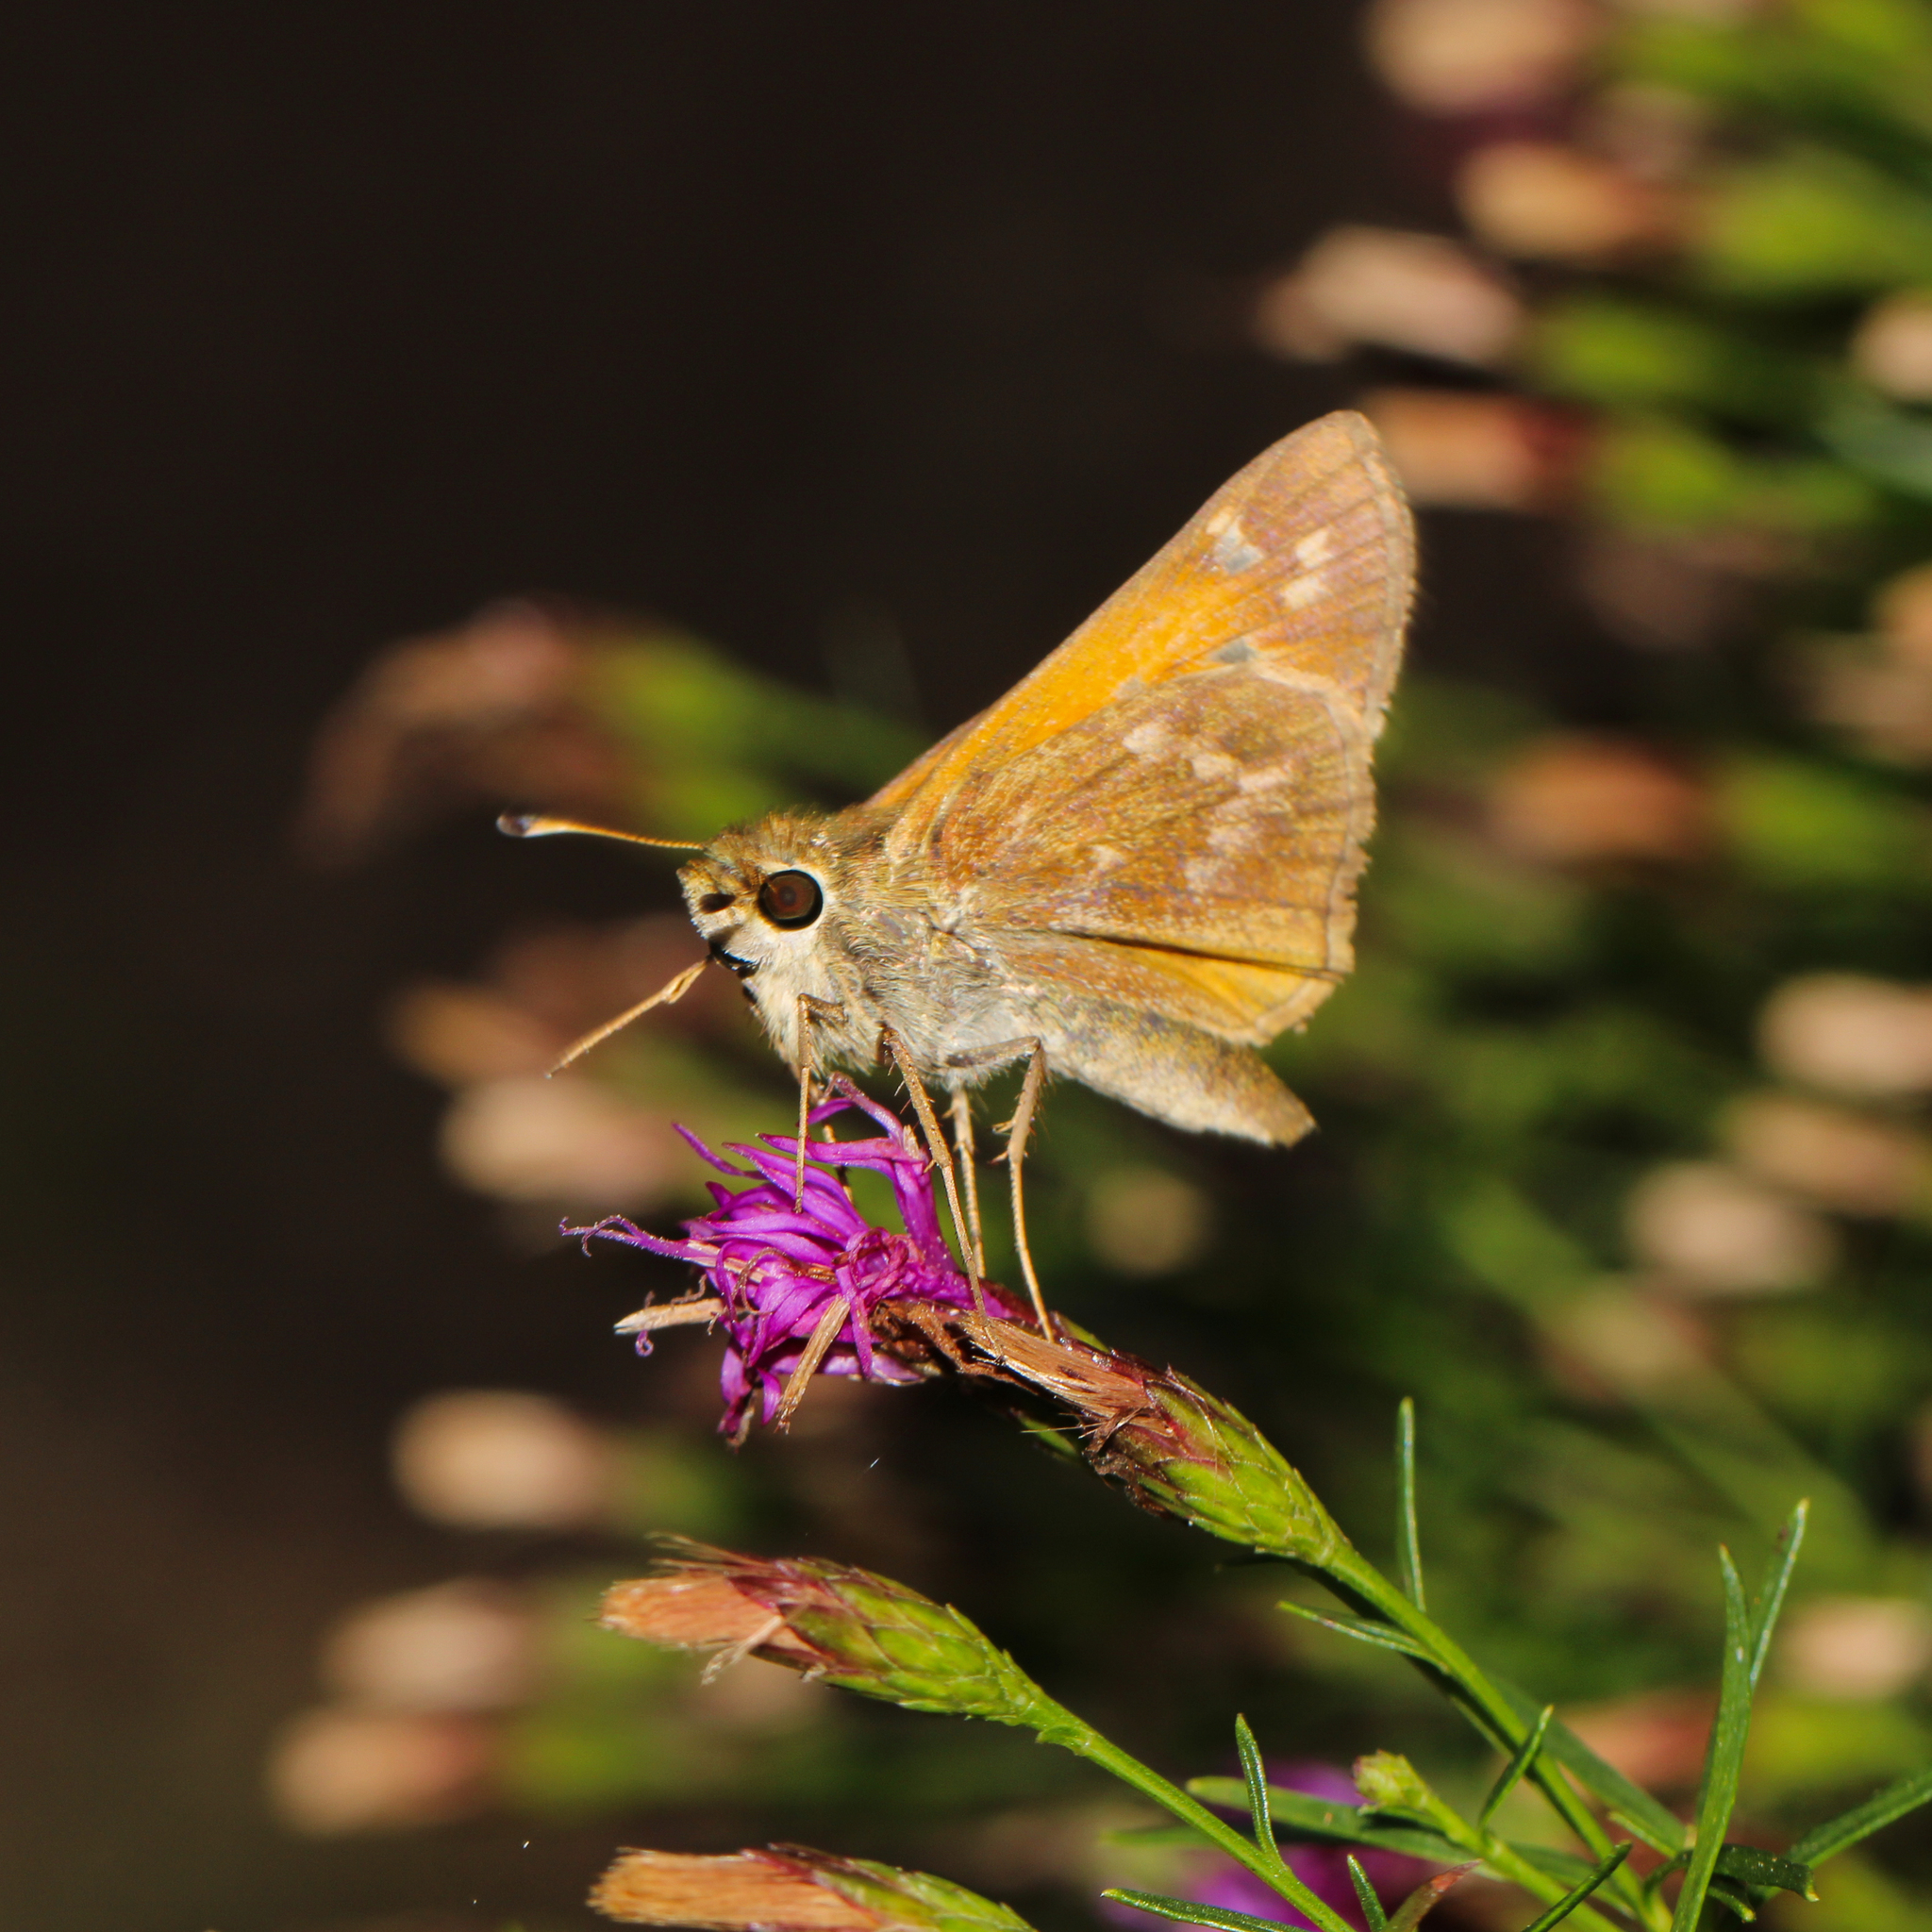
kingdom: Animalia
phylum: Arthropoda
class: Insecta
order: Lepidoptera
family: Hesperiidae
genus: Atalopedes
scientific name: Atalopedes
